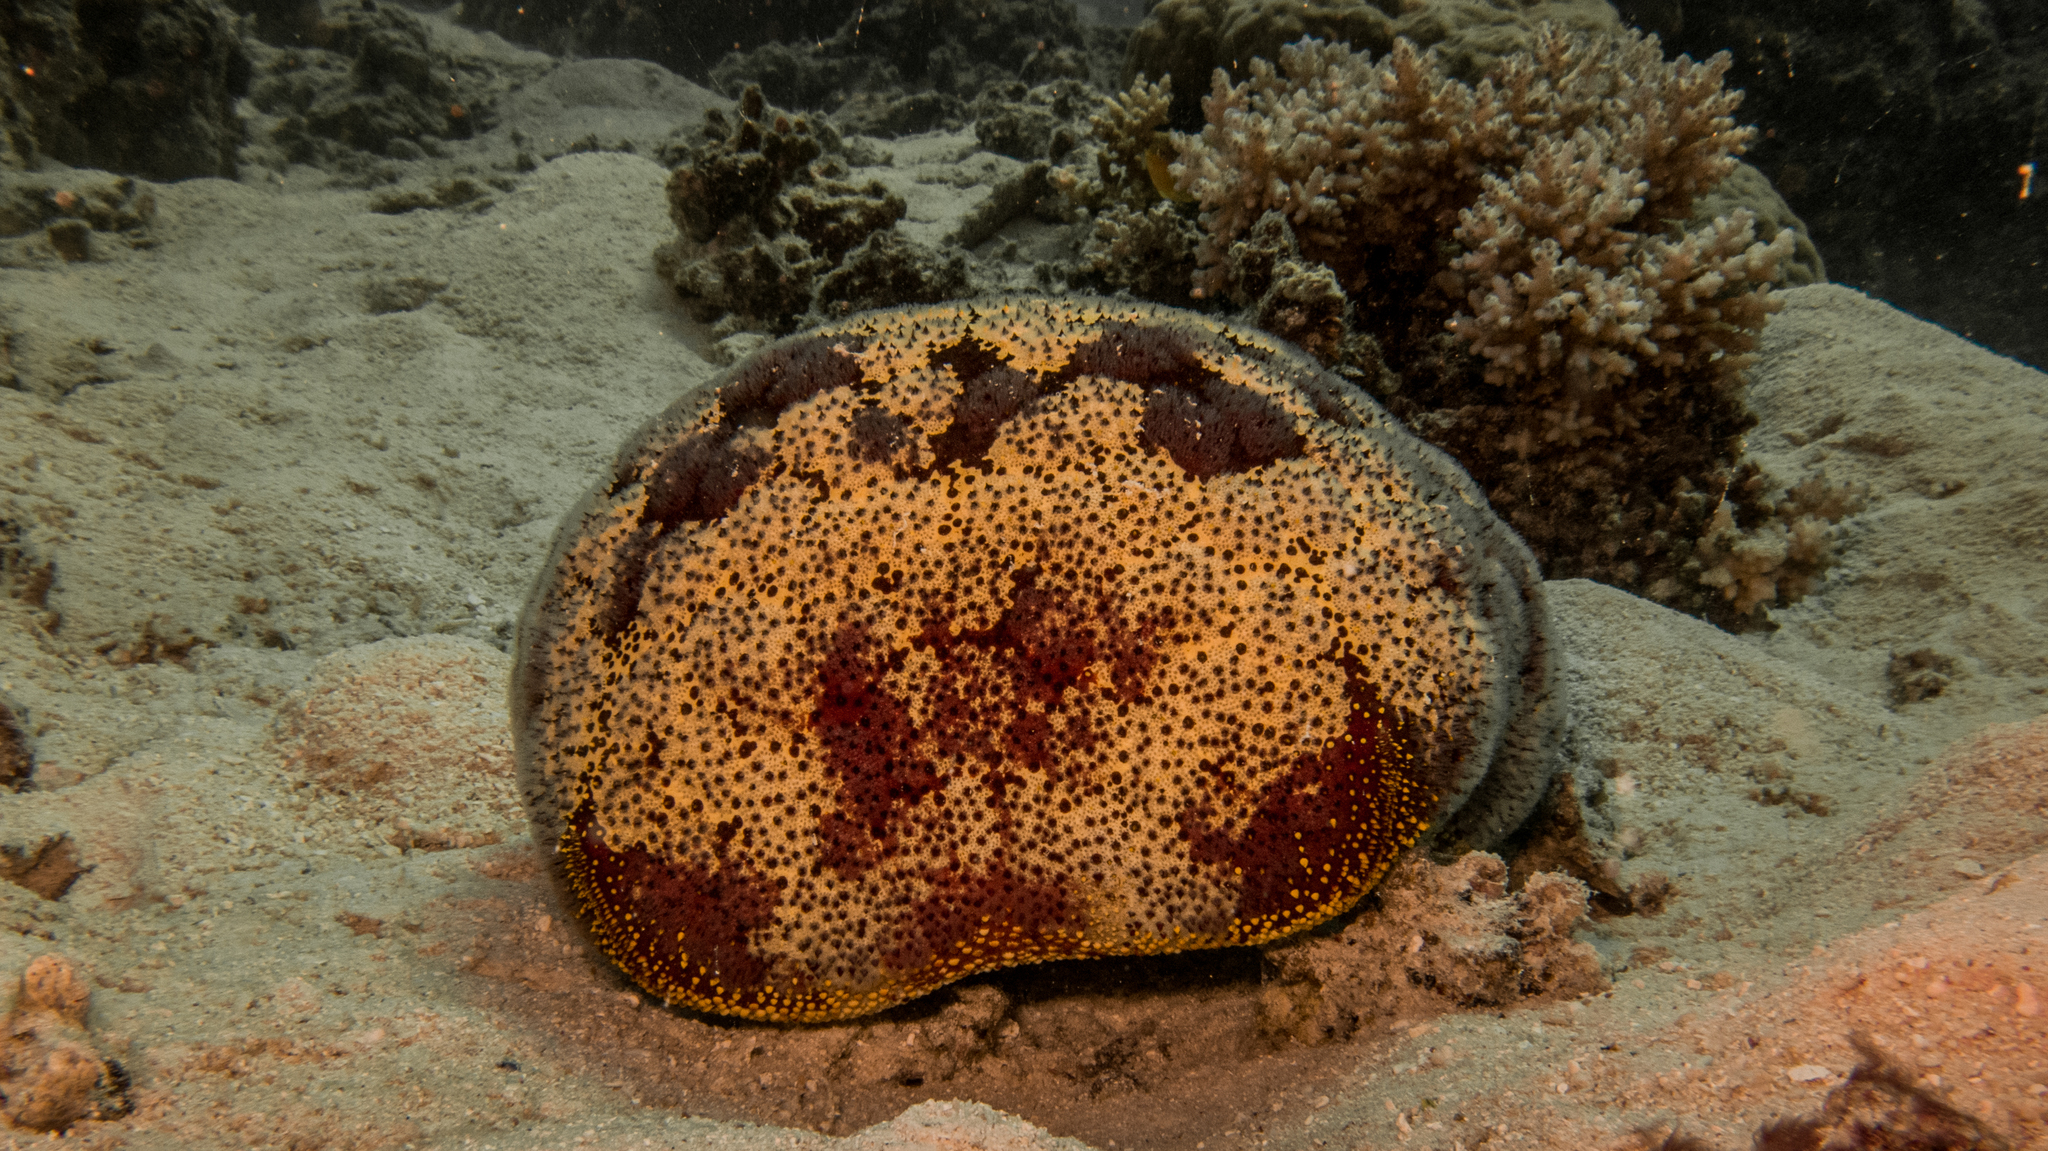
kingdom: Animalia
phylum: Echinodermata
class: Asteroidea
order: Valvatida
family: Oreasteridae
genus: Culcita
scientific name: Culcita novaeguineae
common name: Cushion star
